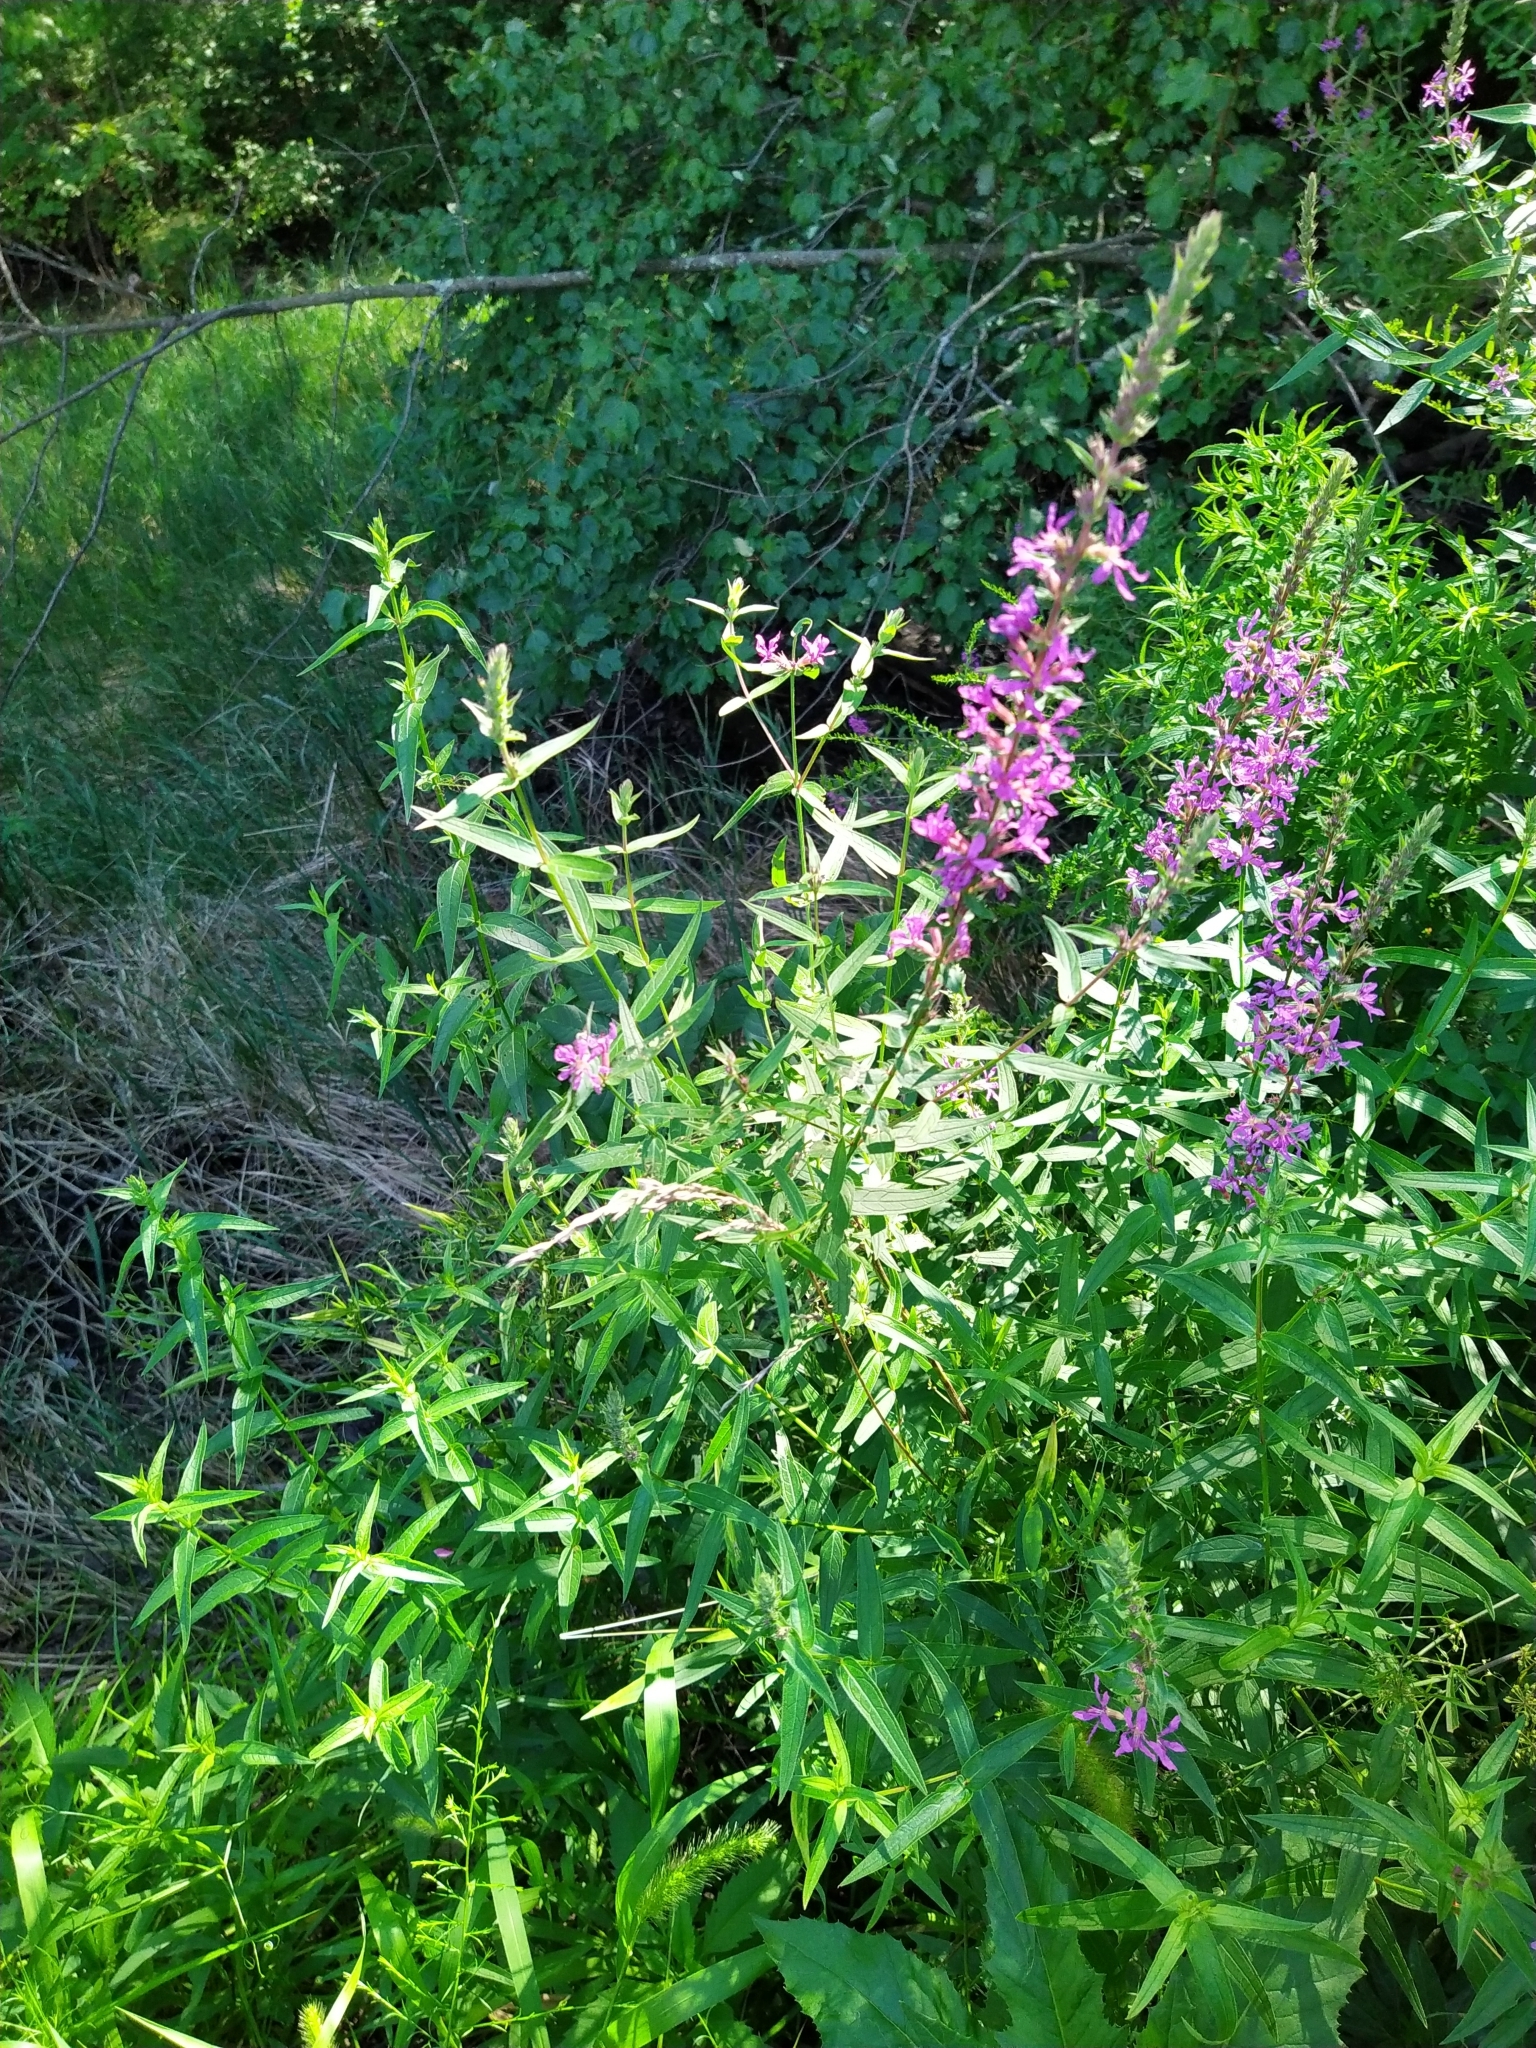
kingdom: Plantae
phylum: Tracheophyta
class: Magnoliopsida
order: Myrtales
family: Lythraceae
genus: Lythrum
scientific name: Lythrum salicaria
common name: Purple loosestrife
